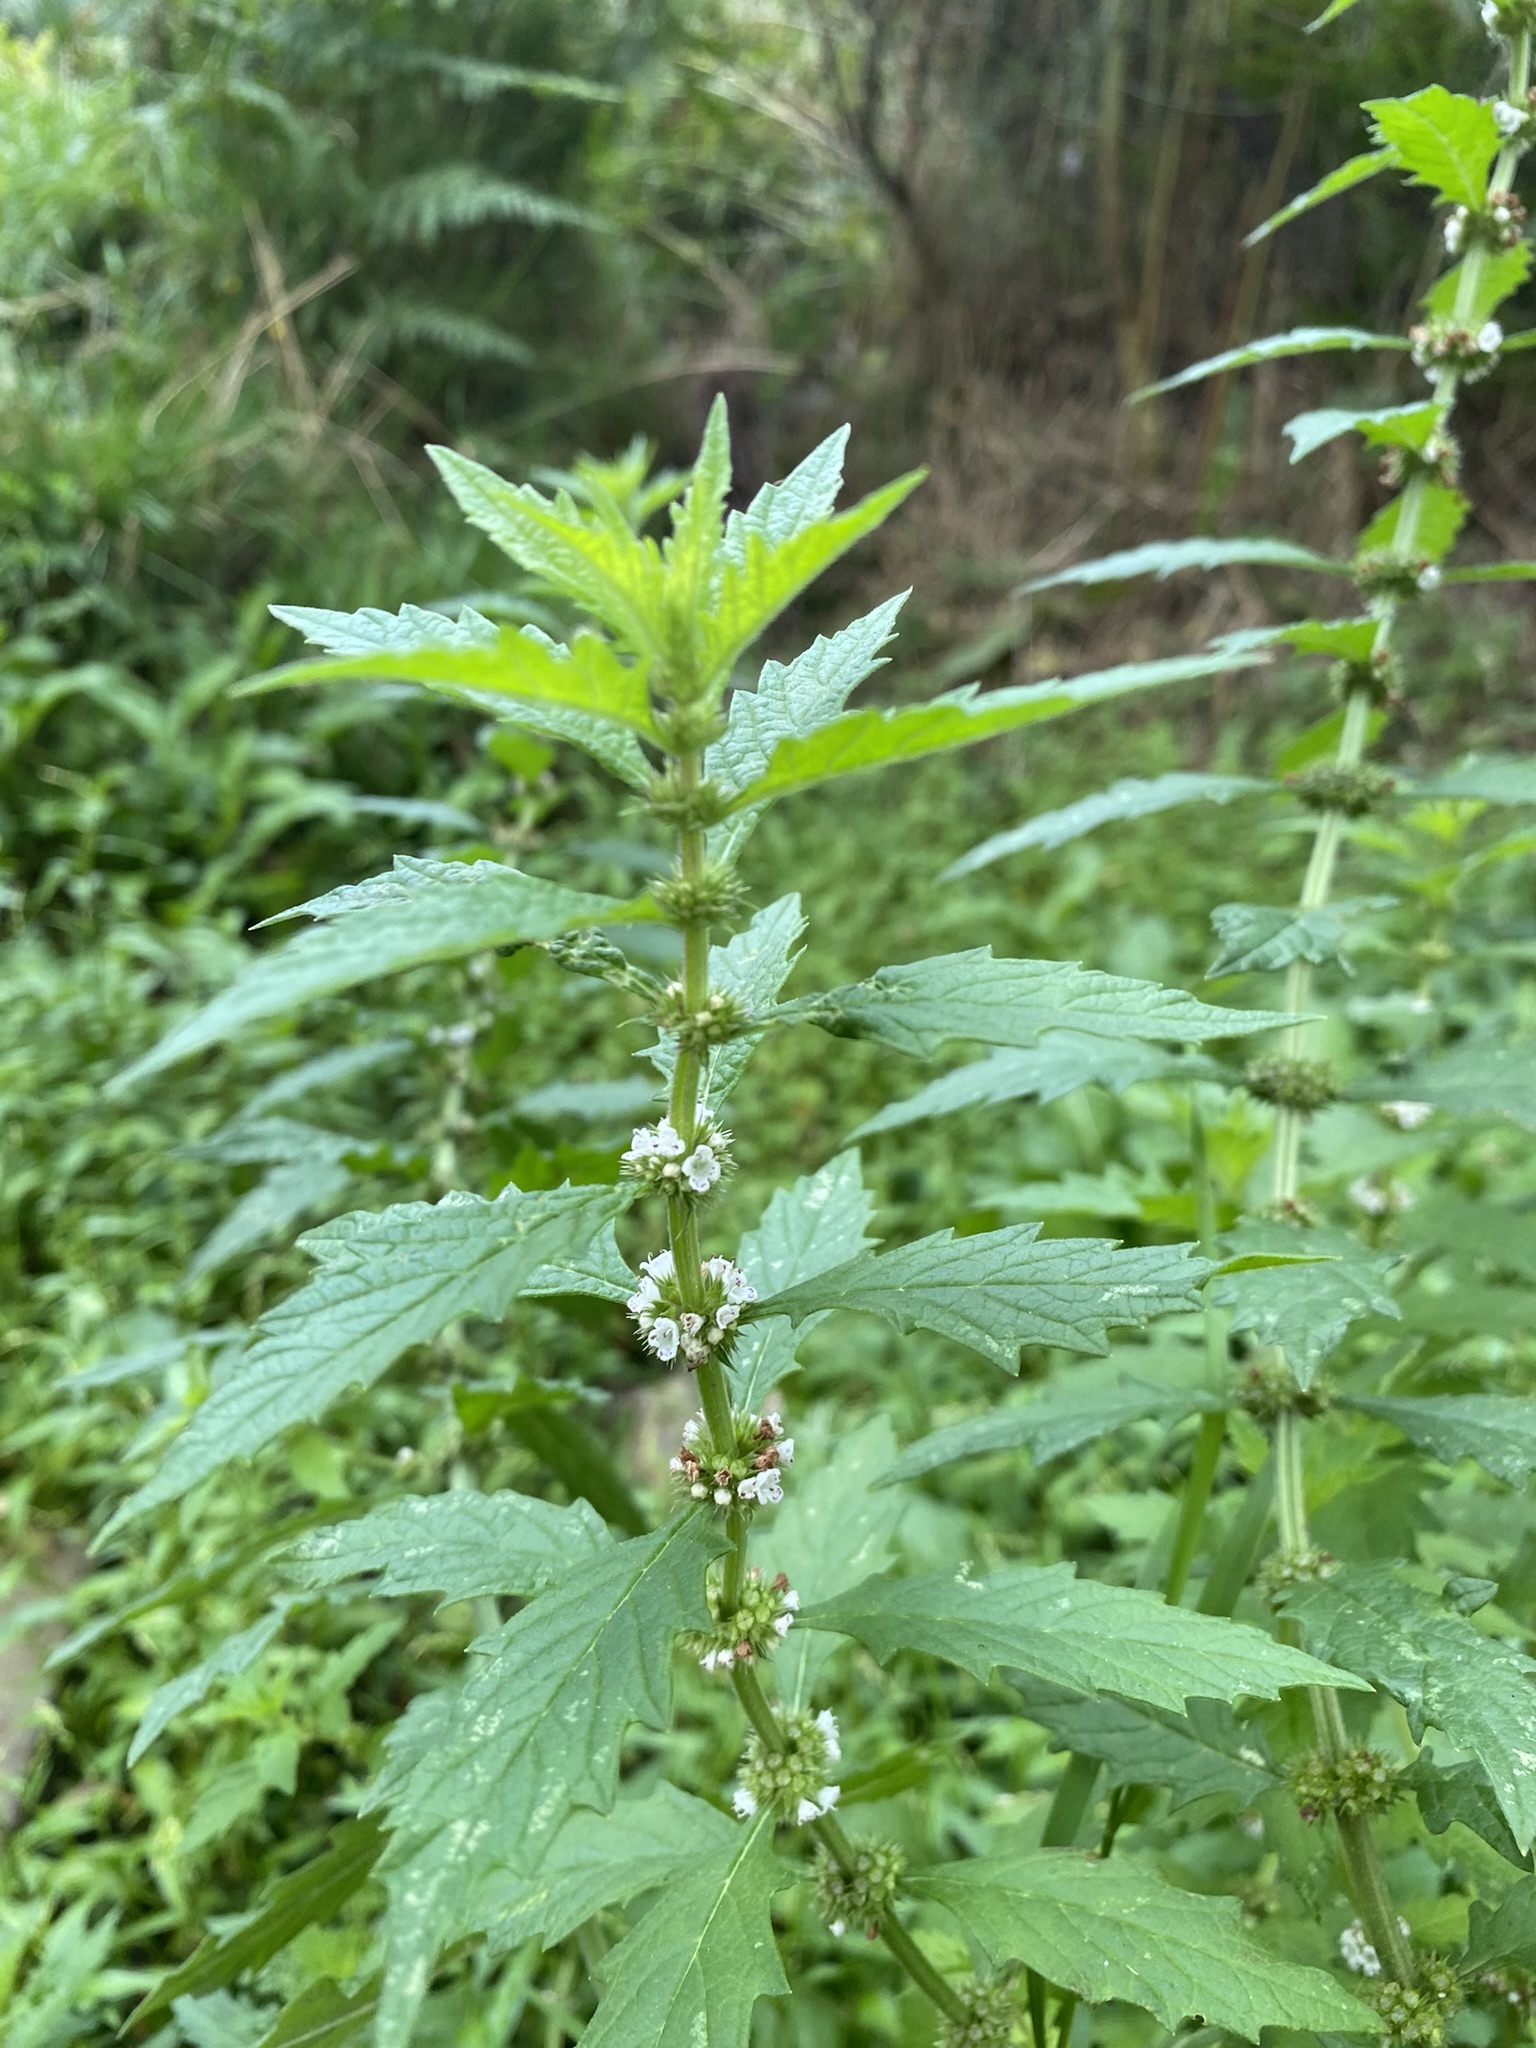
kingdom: Plantae
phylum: Tracheophyta
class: Magnoliopsida
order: Lamiales
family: Lamiaceae
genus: Lycopus
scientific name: Lycopus europaeus
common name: European bugleweed
